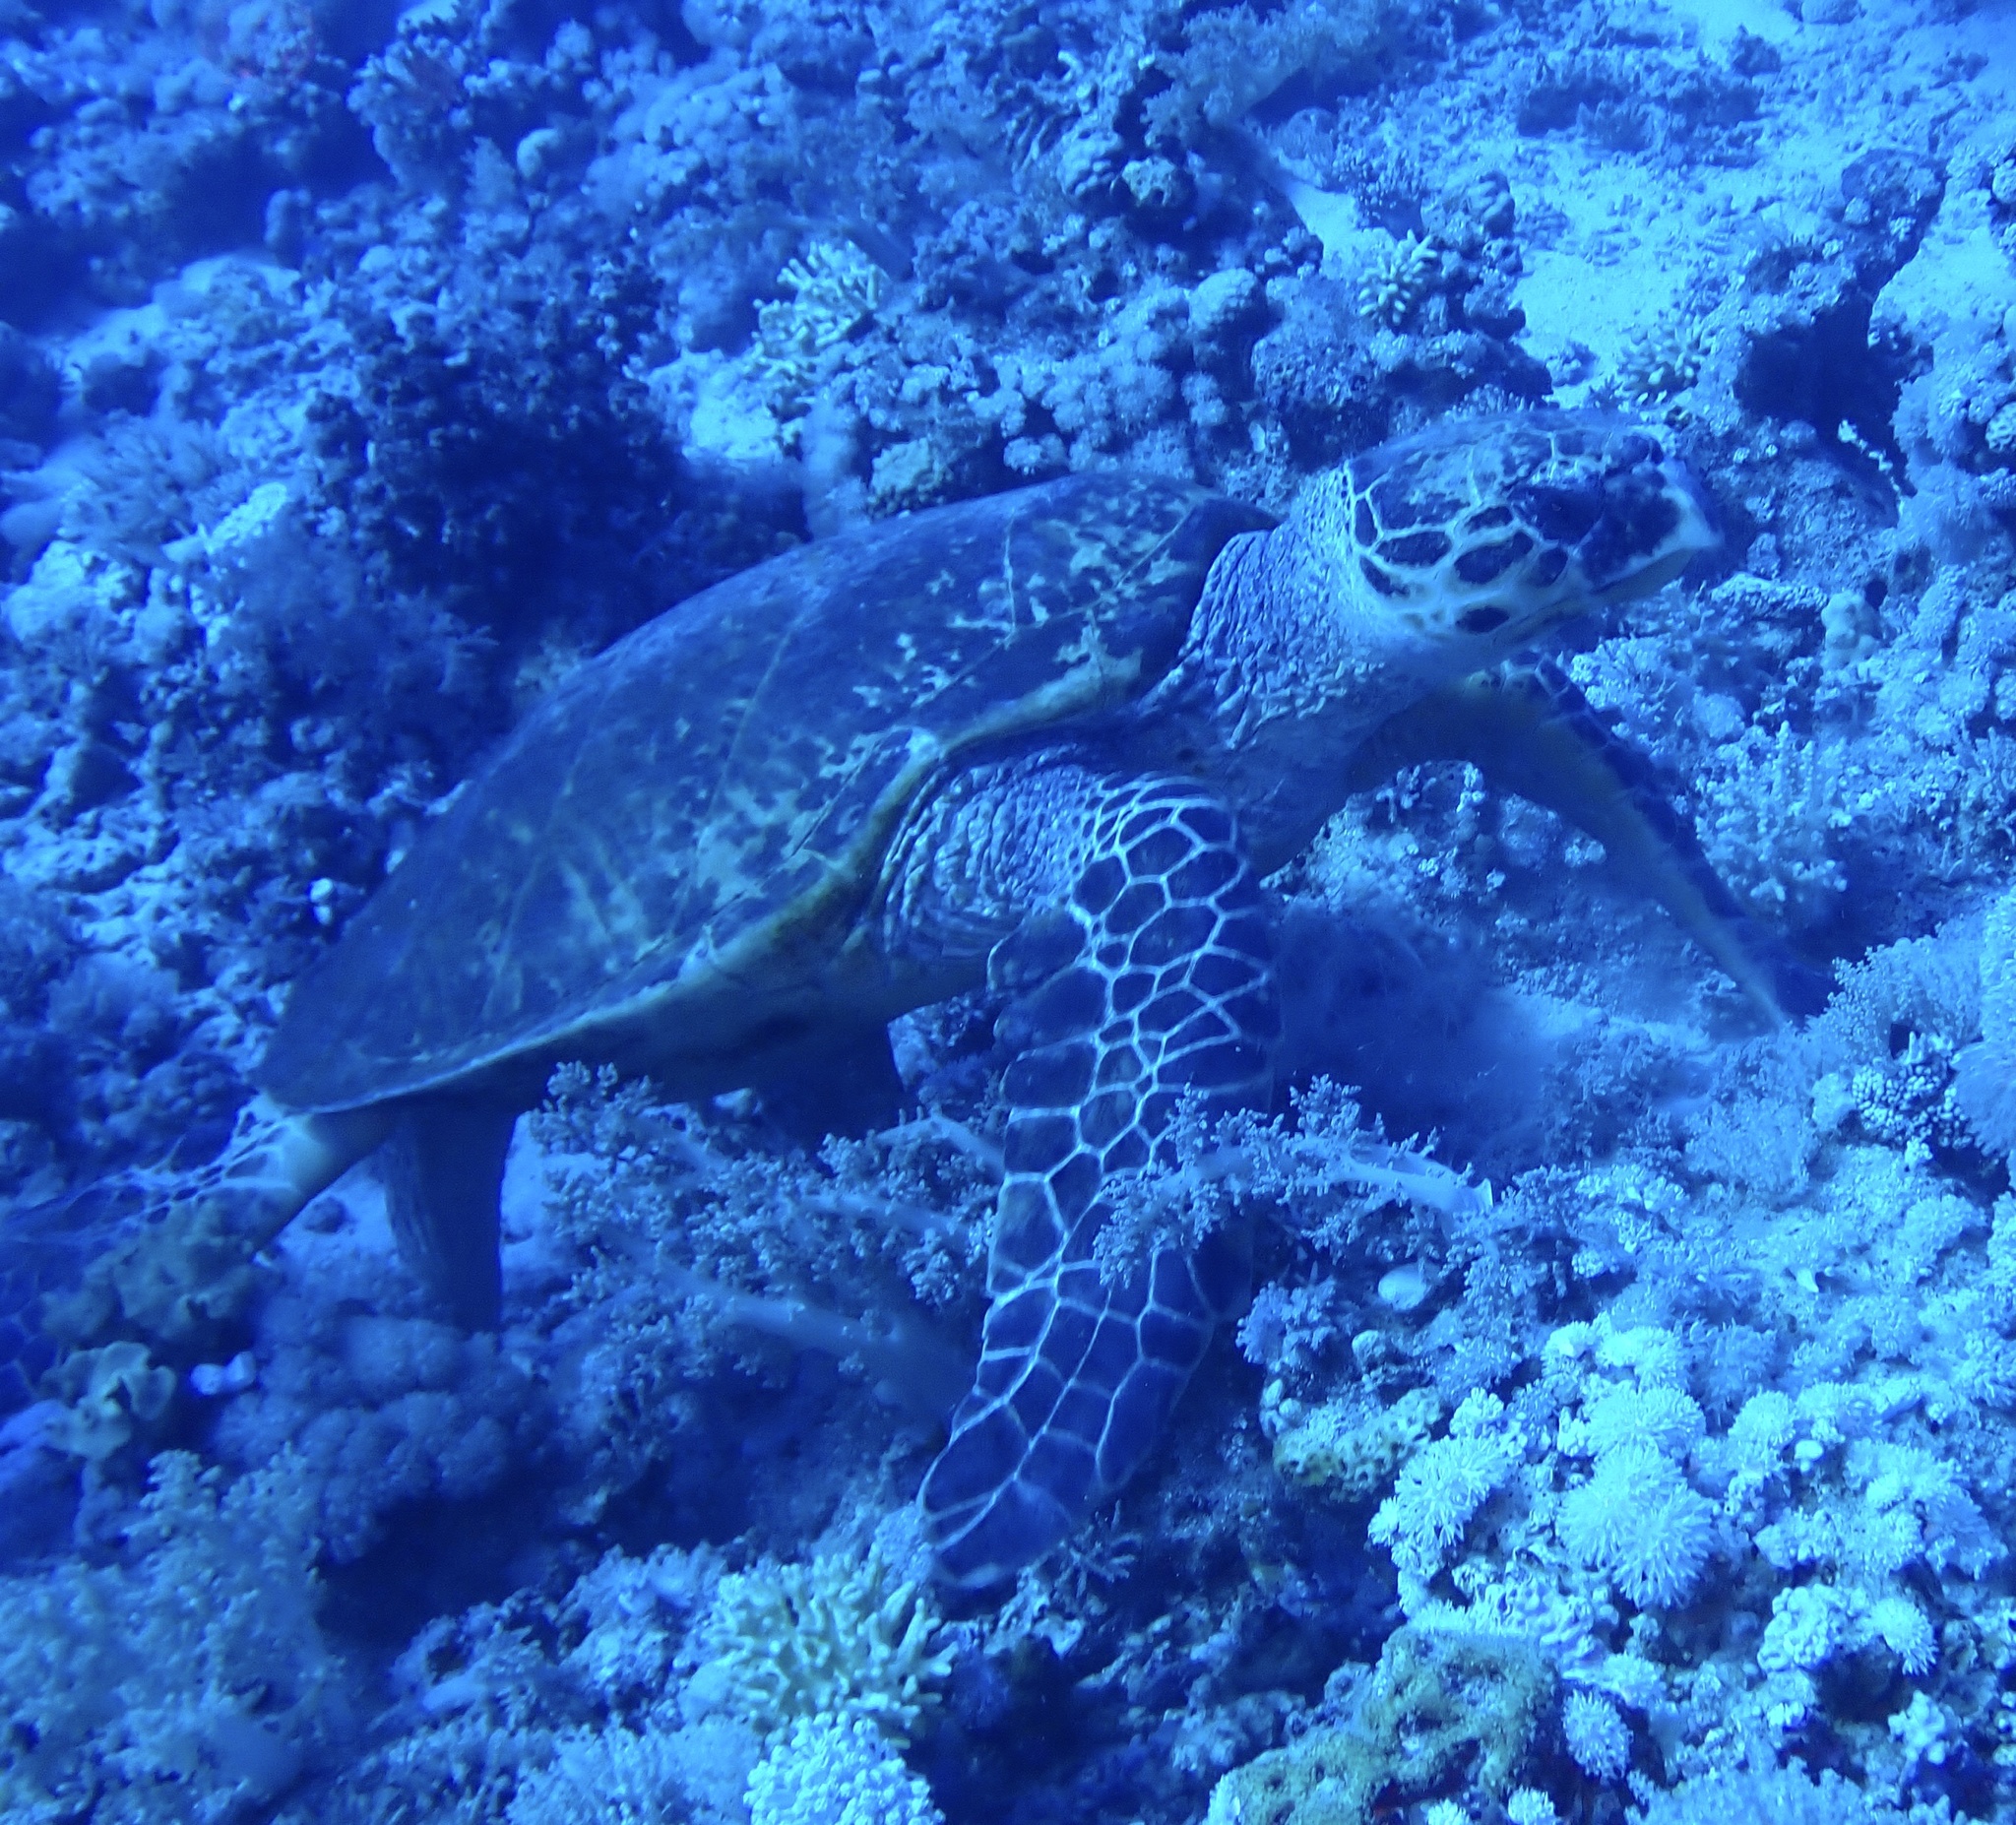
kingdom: Animalia
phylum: Chordata
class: Testudines
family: Cheloniidae
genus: Eretmochelys
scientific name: Eretmochelys imbricata
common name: Hawksbill turtle
